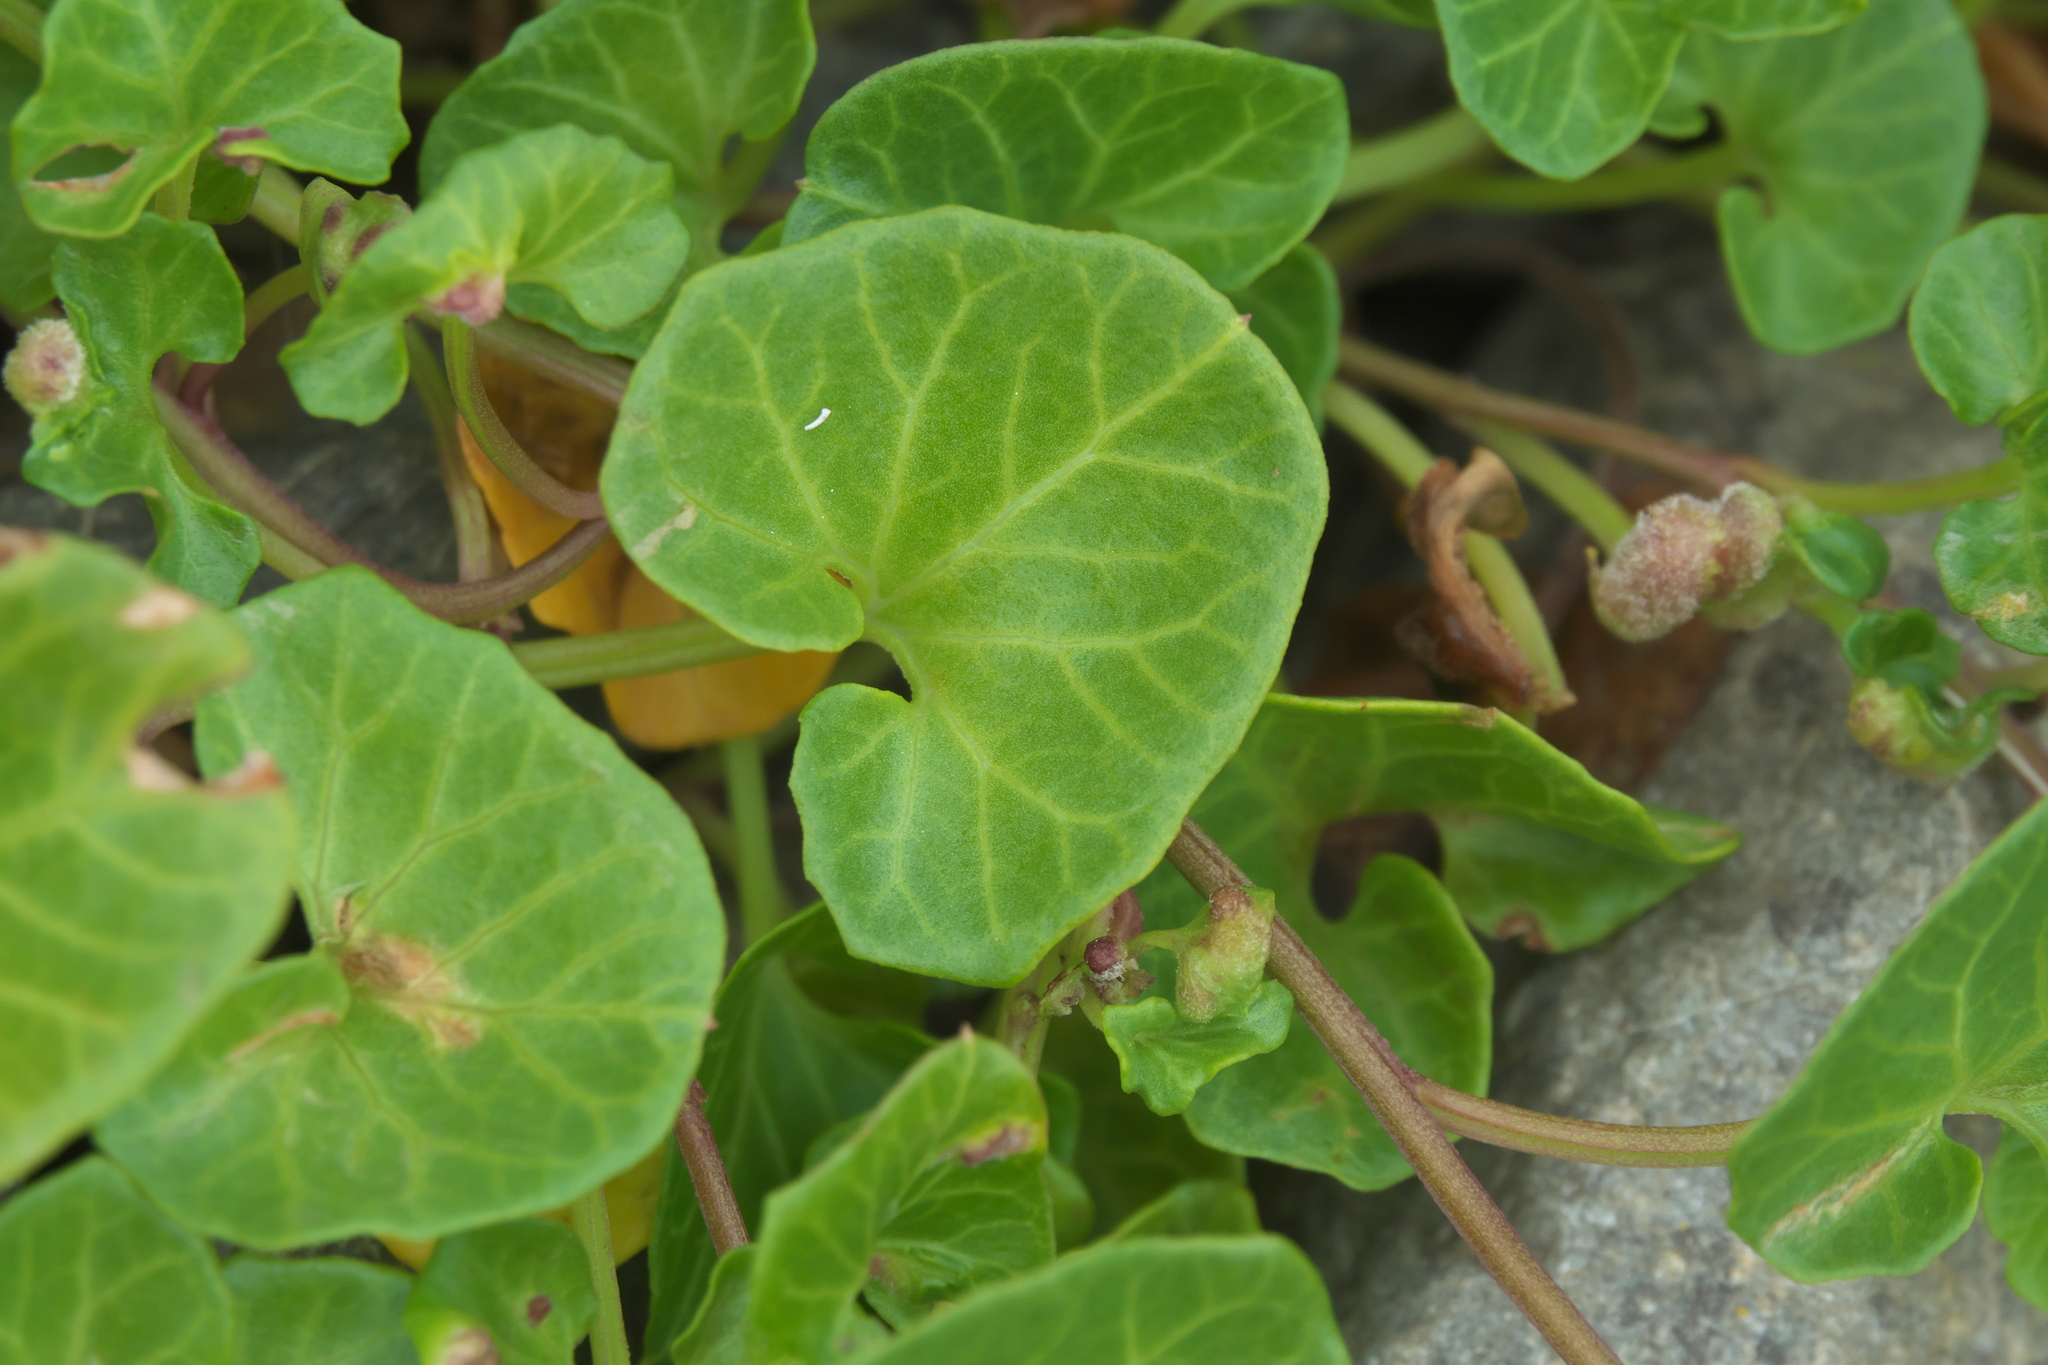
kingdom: Plantae
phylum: Tracheophyta
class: Magnoliopsida
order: Solanales
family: Convolvulaceae
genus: Calystegia
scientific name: Calystegia soldanella
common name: Sea bindweed
